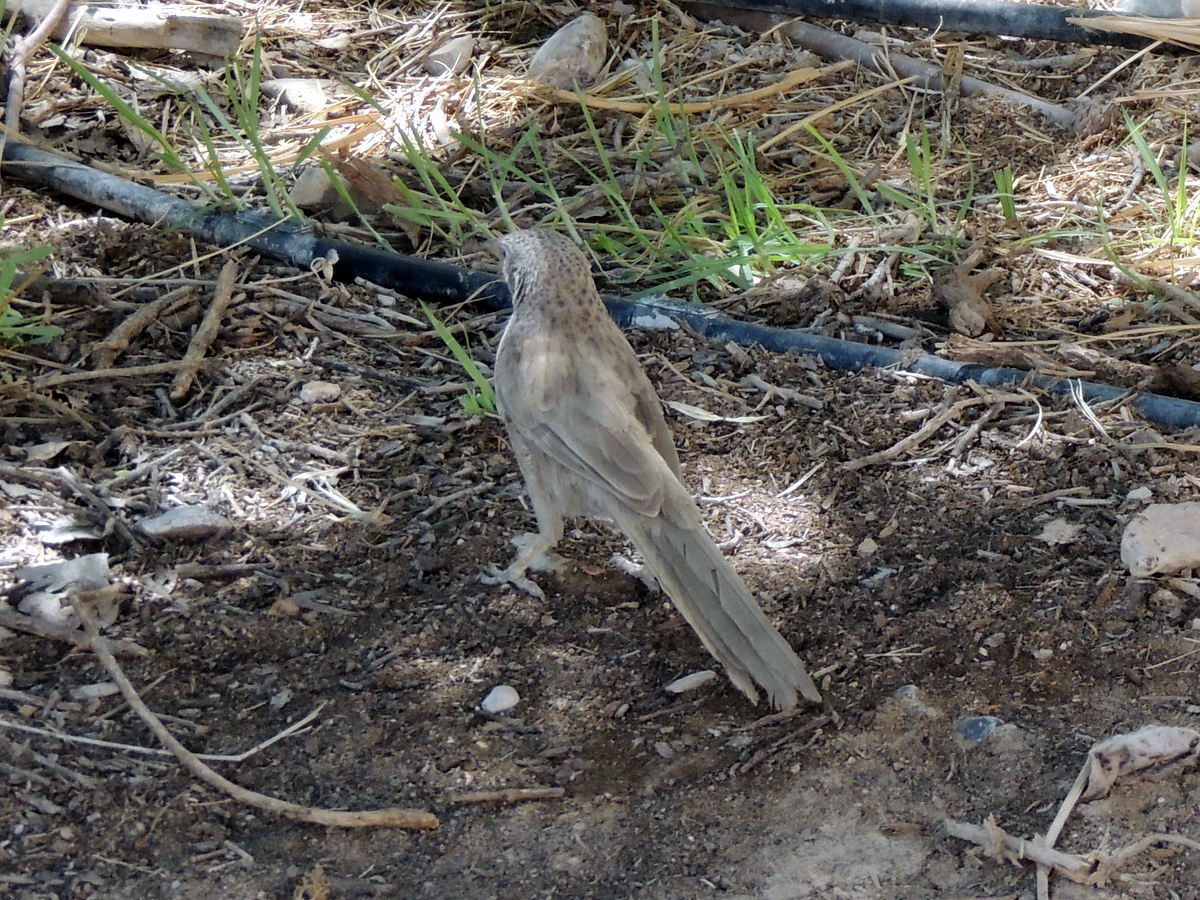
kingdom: Animalia
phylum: Chordata
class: Aves
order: Passeriformes
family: Leiothrichidae
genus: Turdoides
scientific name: Turdoides squamiceps
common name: Arabian babbler
